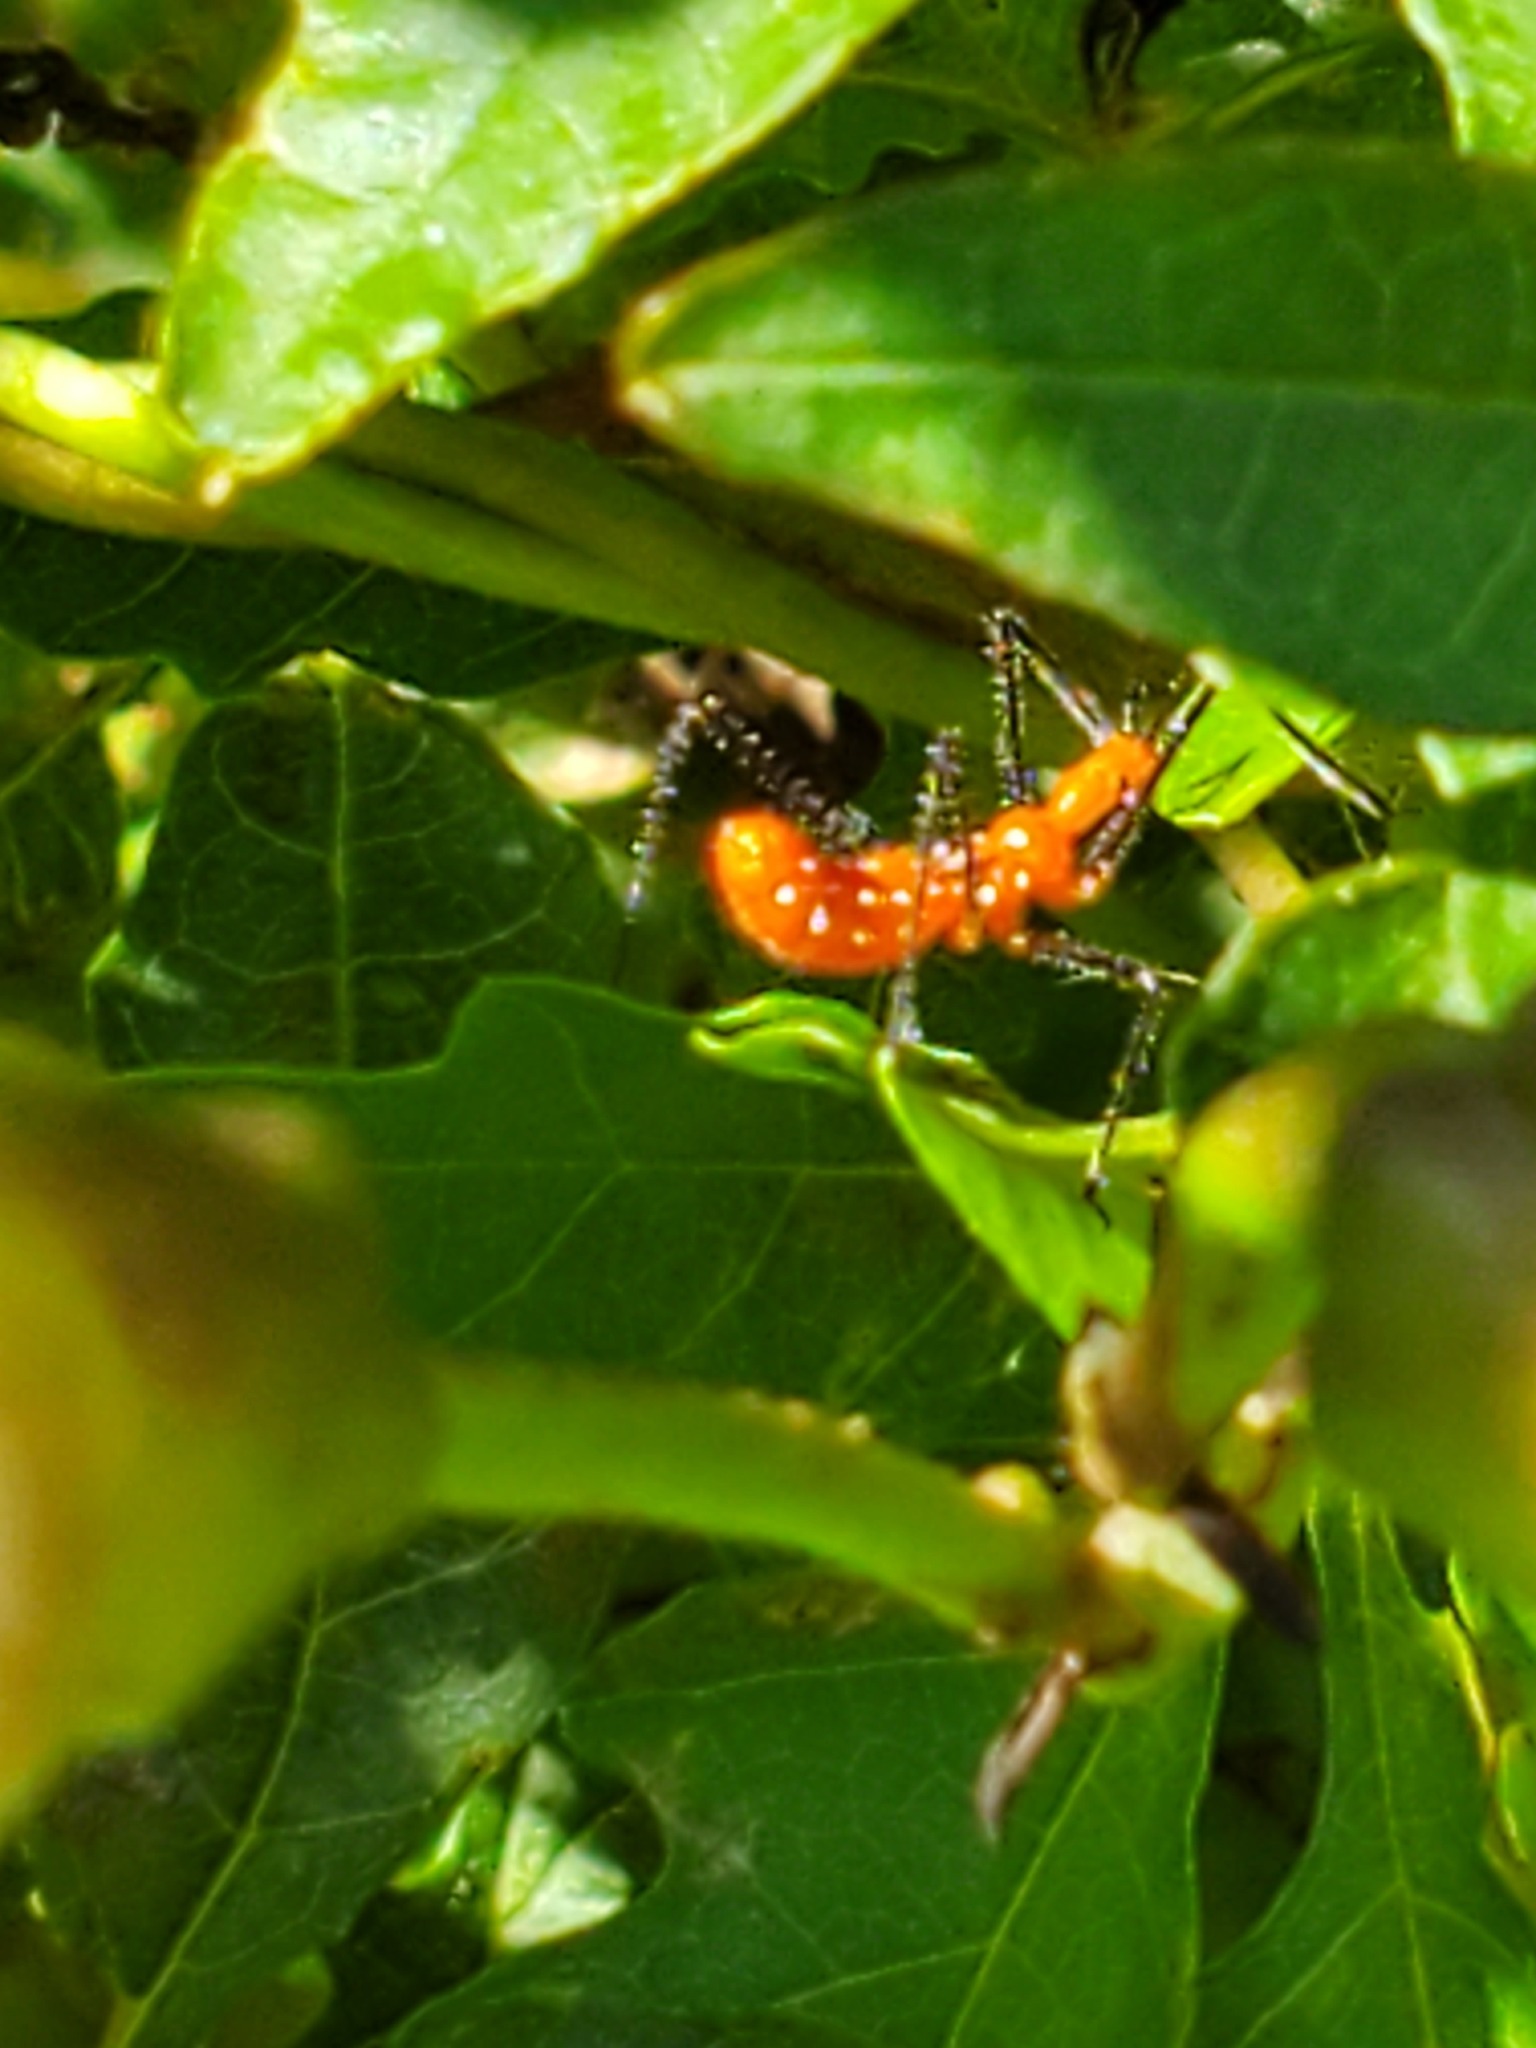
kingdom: Animalia
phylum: Arthropoda
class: Insecta
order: Hemiptera
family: Reduviidae
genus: Zelus
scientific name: Zelus longipes
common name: Milkweed assassin bug
